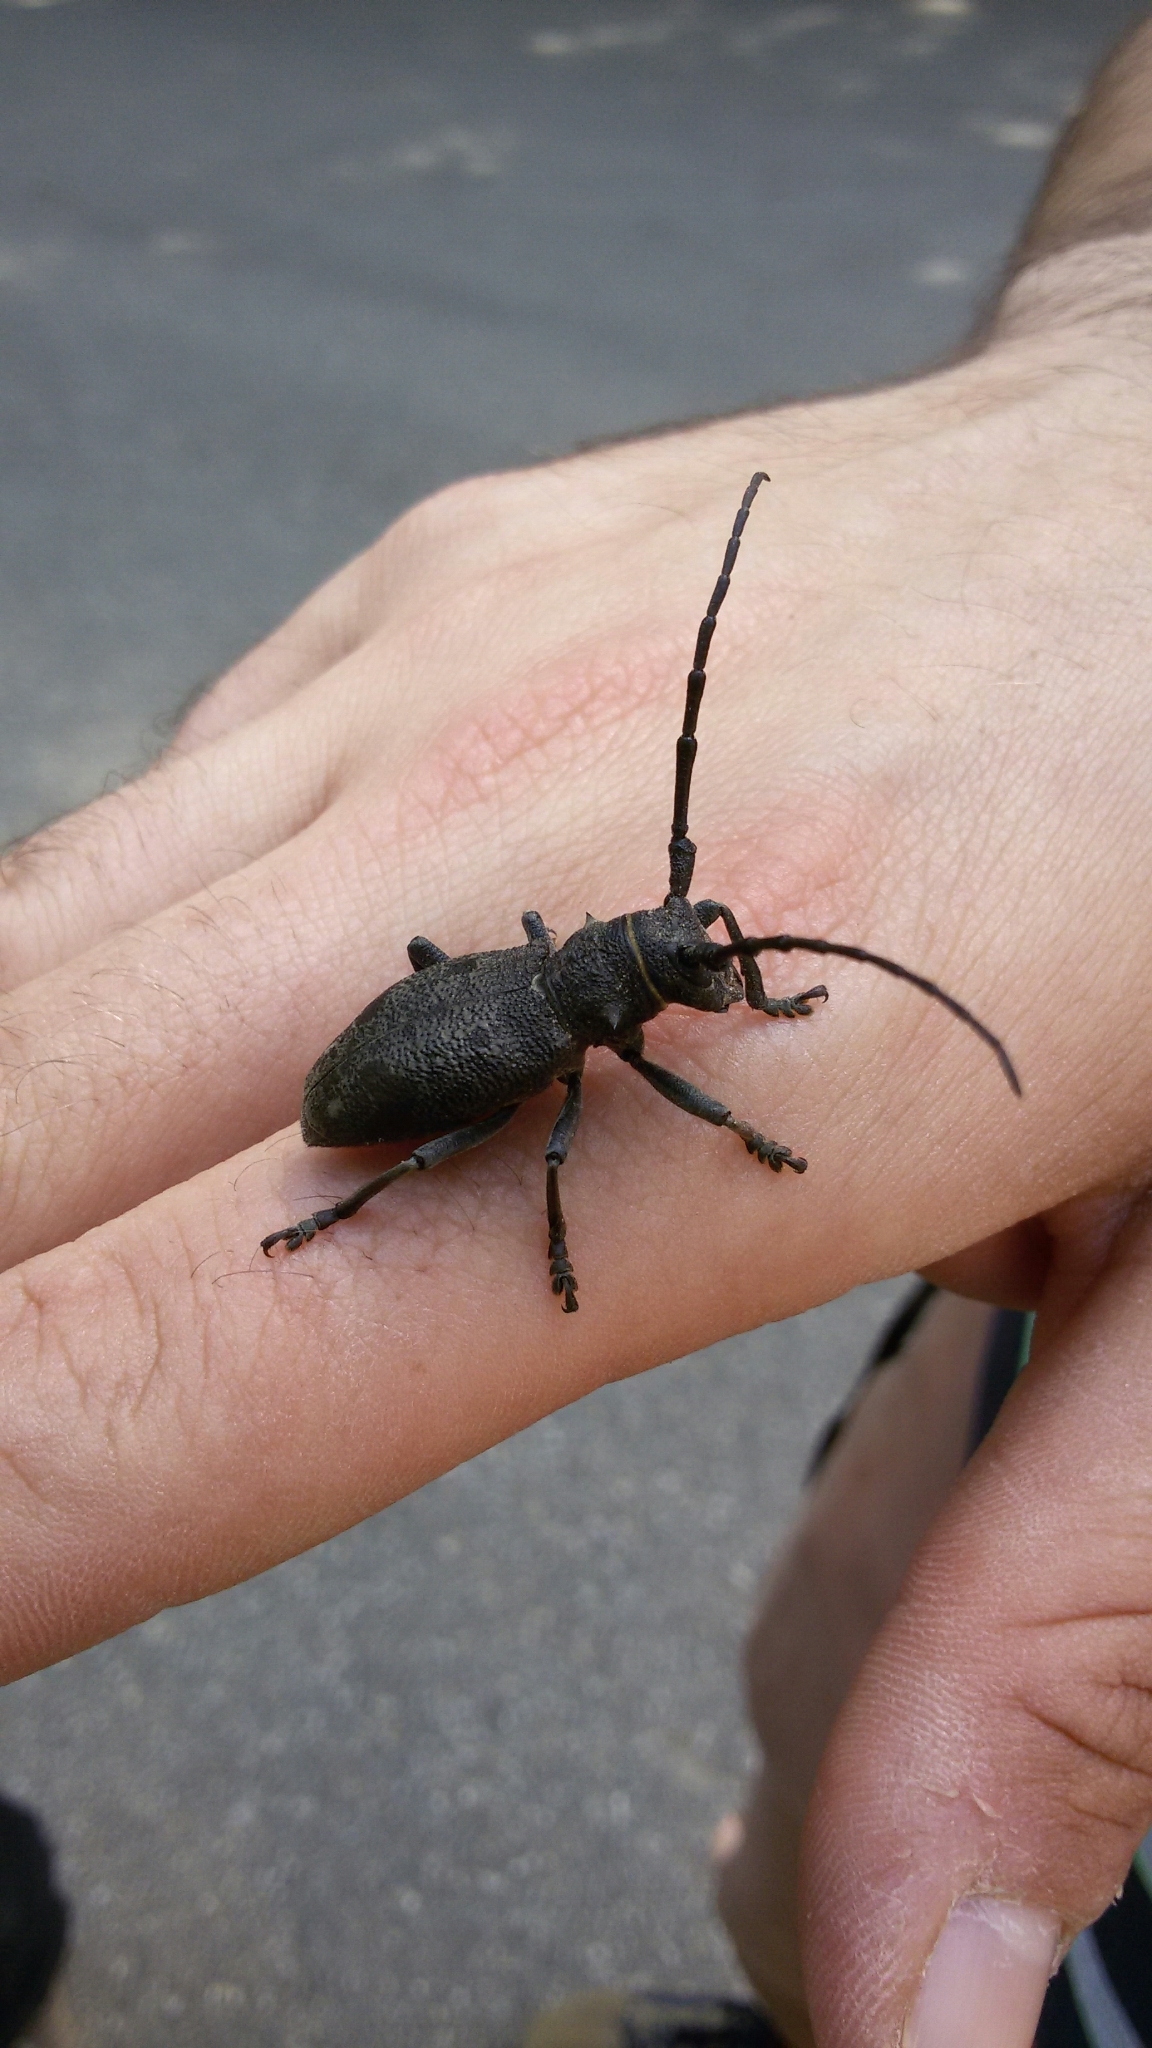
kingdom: Animalia
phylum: Arthropoda
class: Insecta
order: Coleoptera
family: Cerambycidae
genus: Morimus
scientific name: Morimus asper
